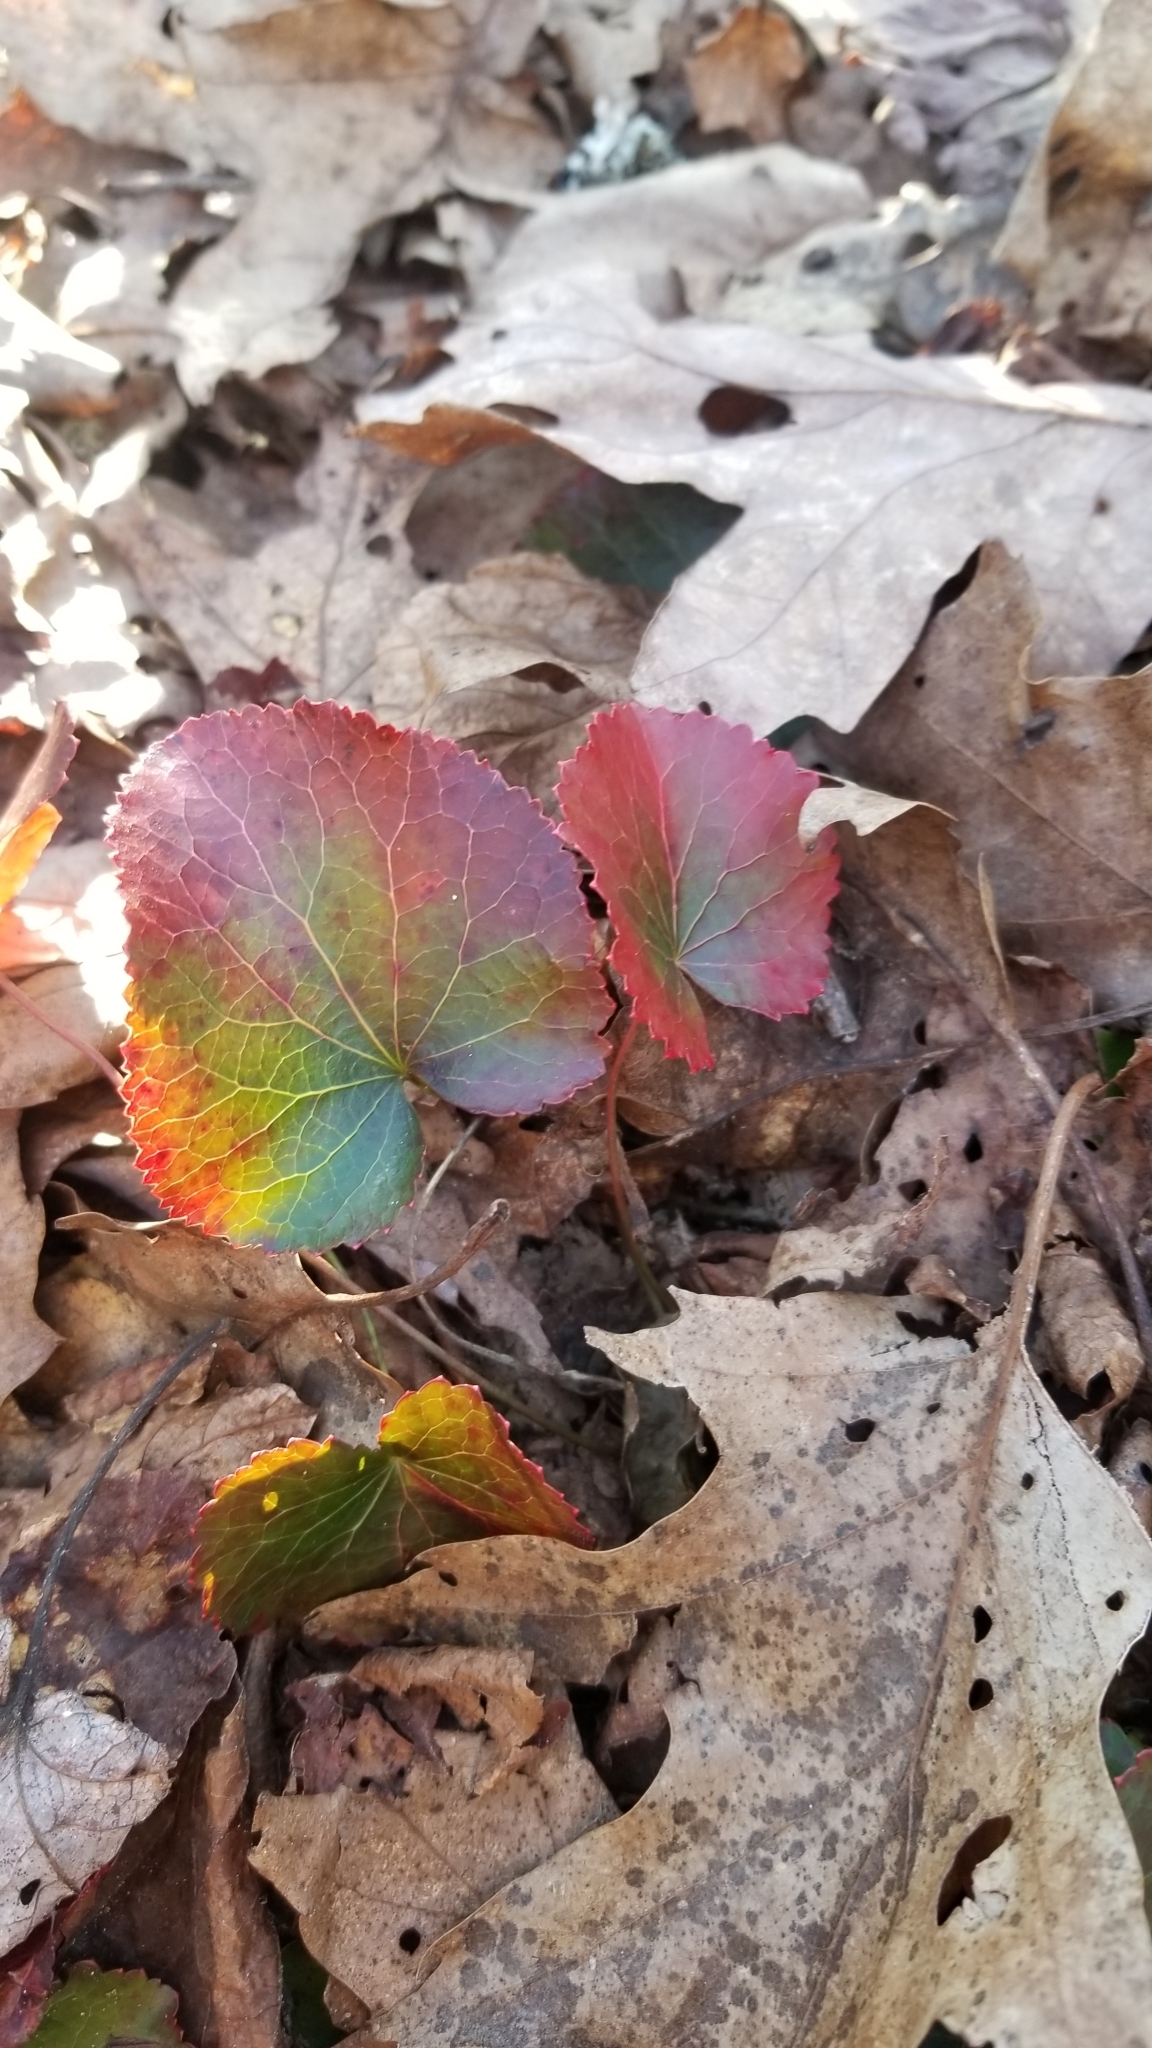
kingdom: Plantae
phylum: Tracheophyta
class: Magnoliopsida
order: Ericales
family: Diapensiaceae
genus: Galax
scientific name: Galax urceolata
